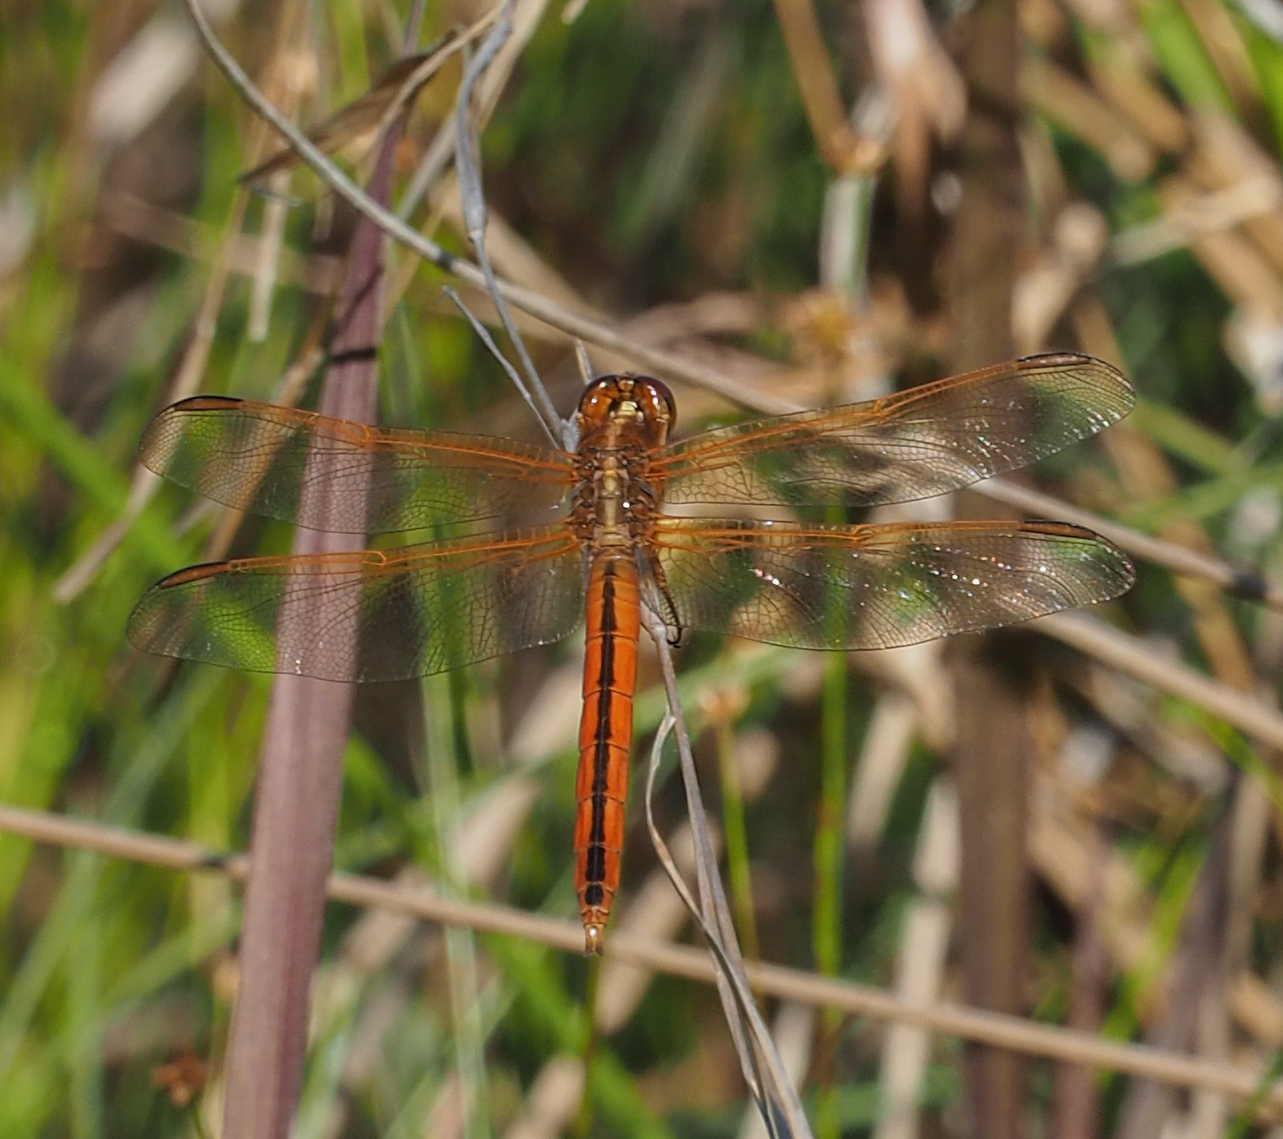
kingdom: Animalia
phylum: Arthropoda
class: Insecta
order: Odonata
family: Libellulidae
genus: Libellula
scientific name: Libellula needhami
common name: Needham's skimmer
